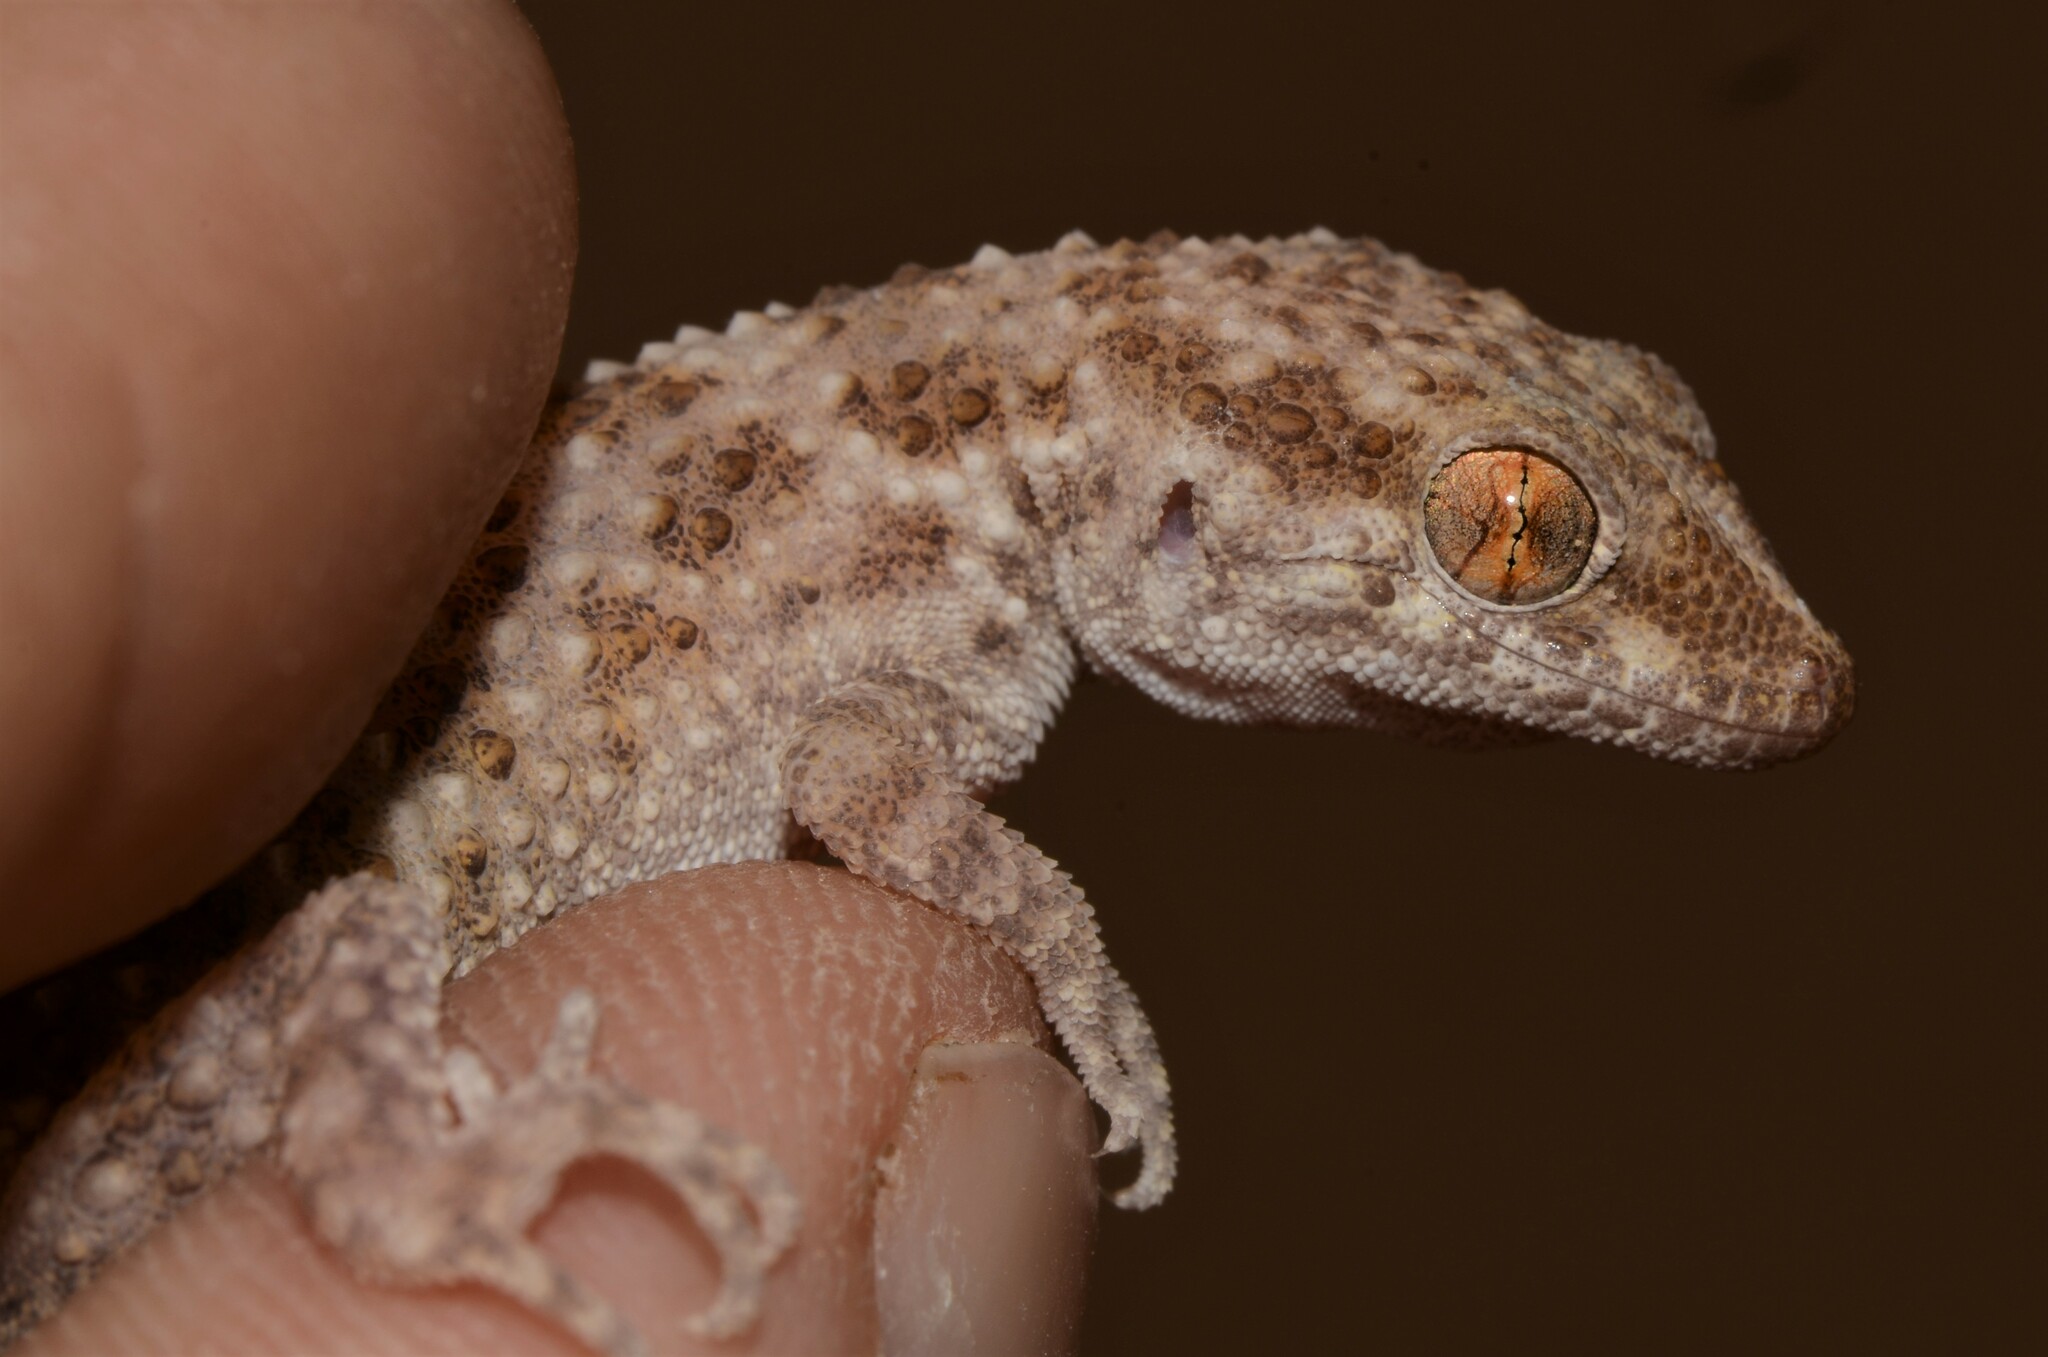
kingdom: Animalia
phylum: Chordata
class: Squamata
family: Gekkonidae
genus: Bunopus
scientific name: Bunopus tuberculatus
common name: Southern tuberculated gecko
